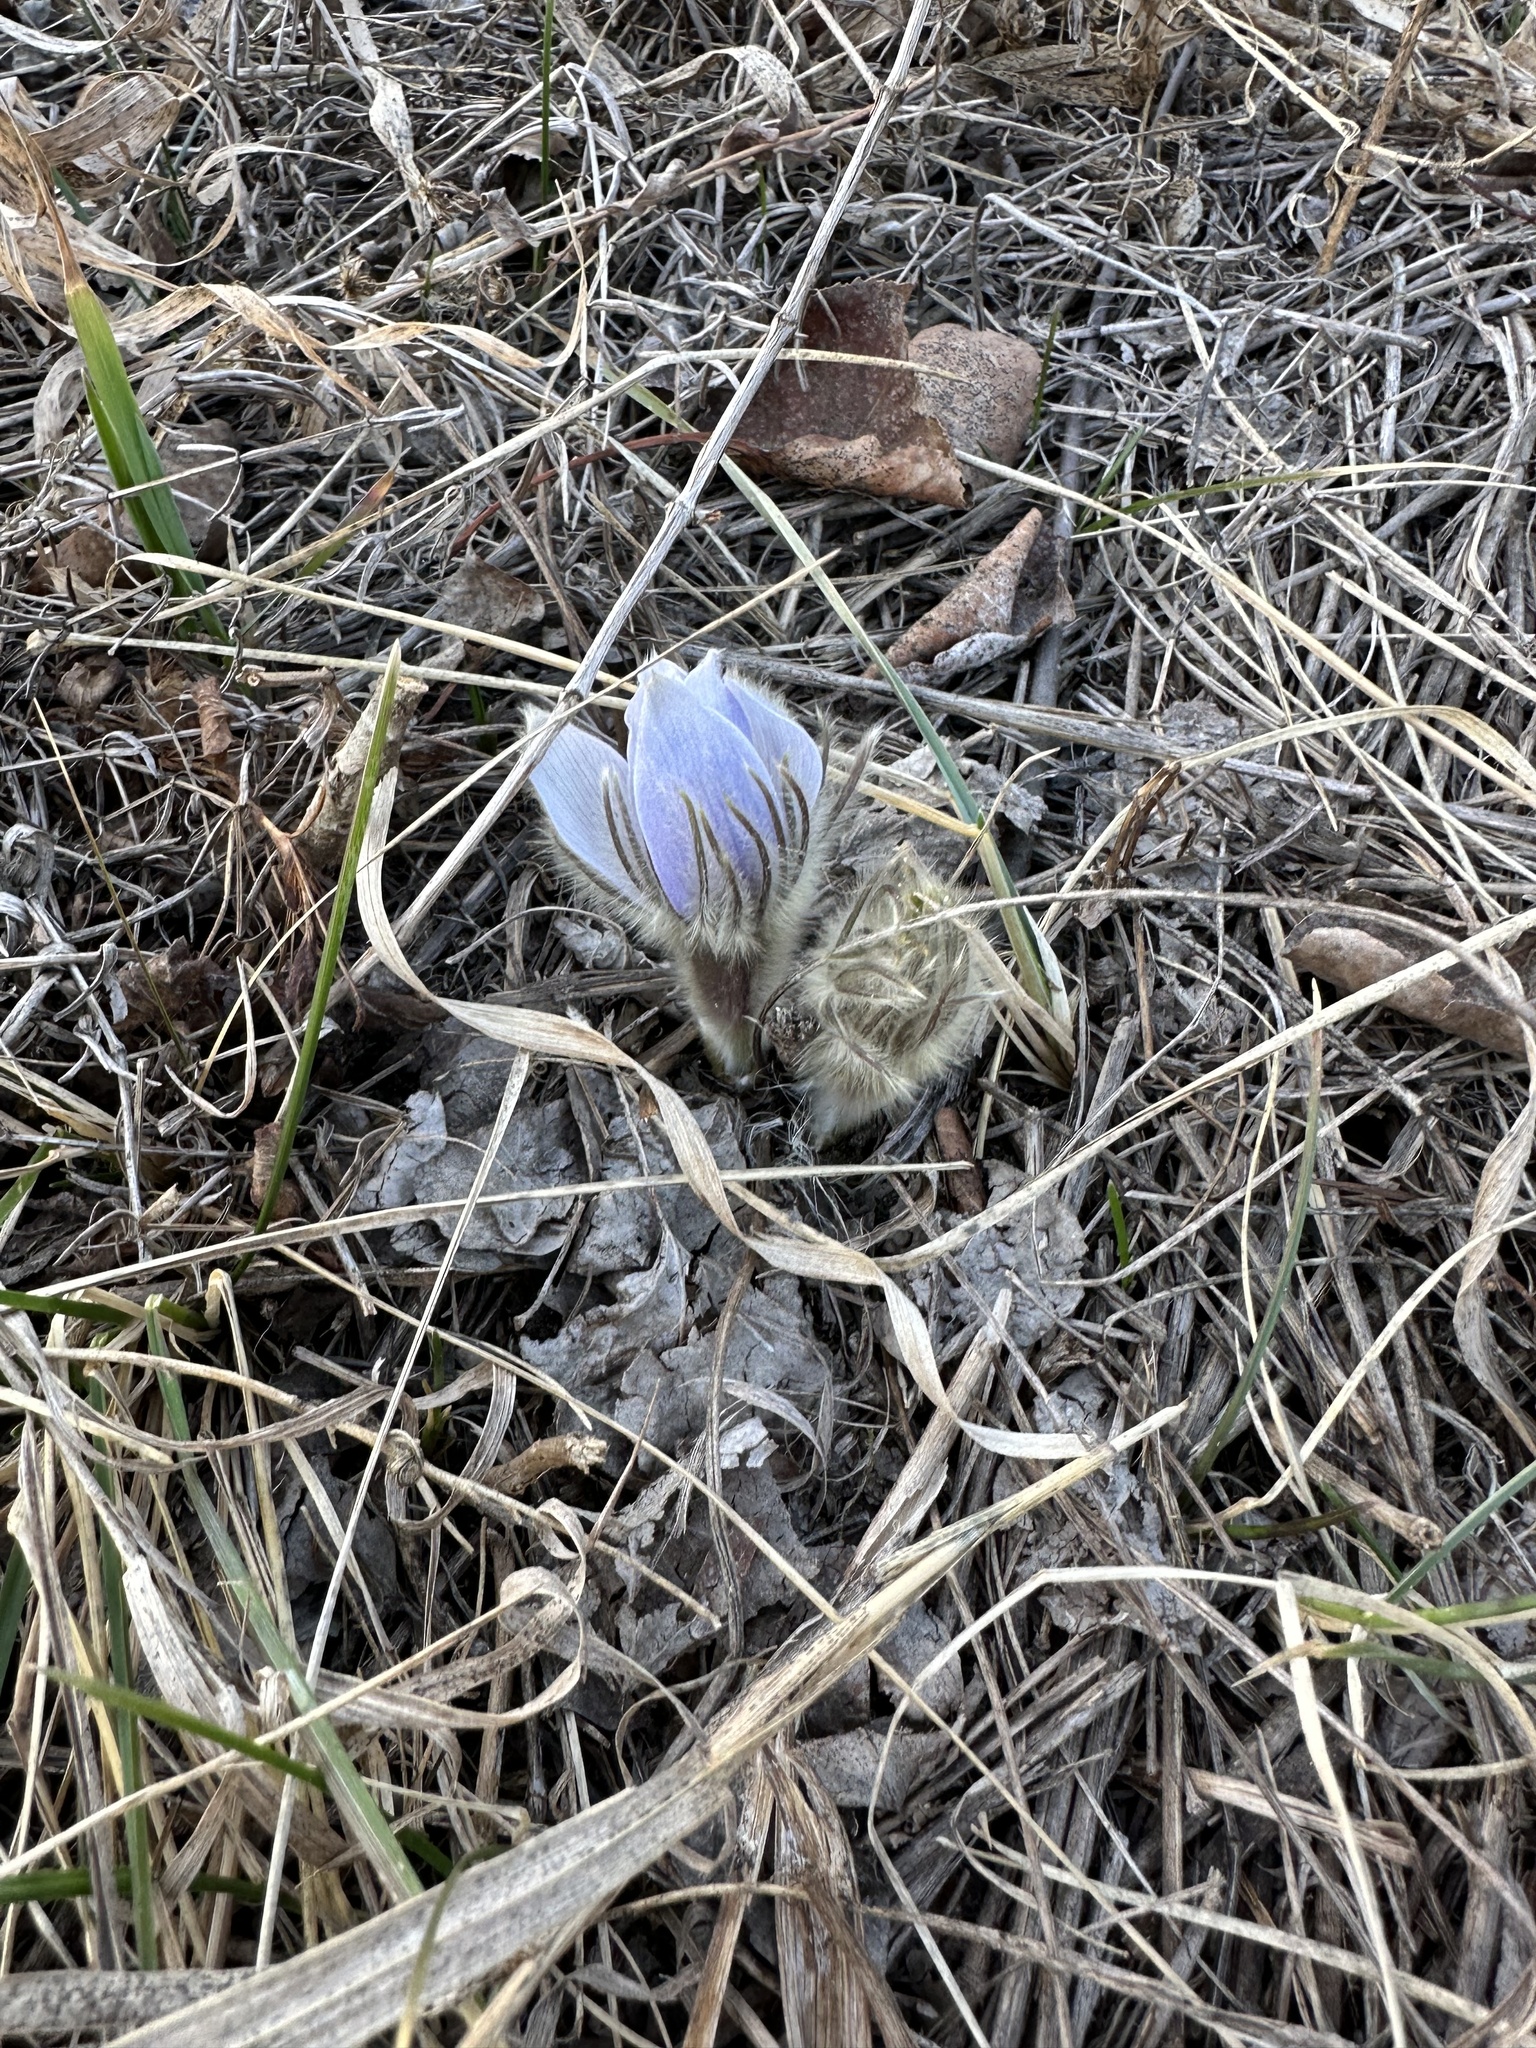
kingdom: Plantae
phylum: Tracheophyta
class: Magnoliopsida
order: Ranunculales
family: Ranunculaceae
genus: Pulsatilla
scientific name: Pulsatilla nuttalliana
